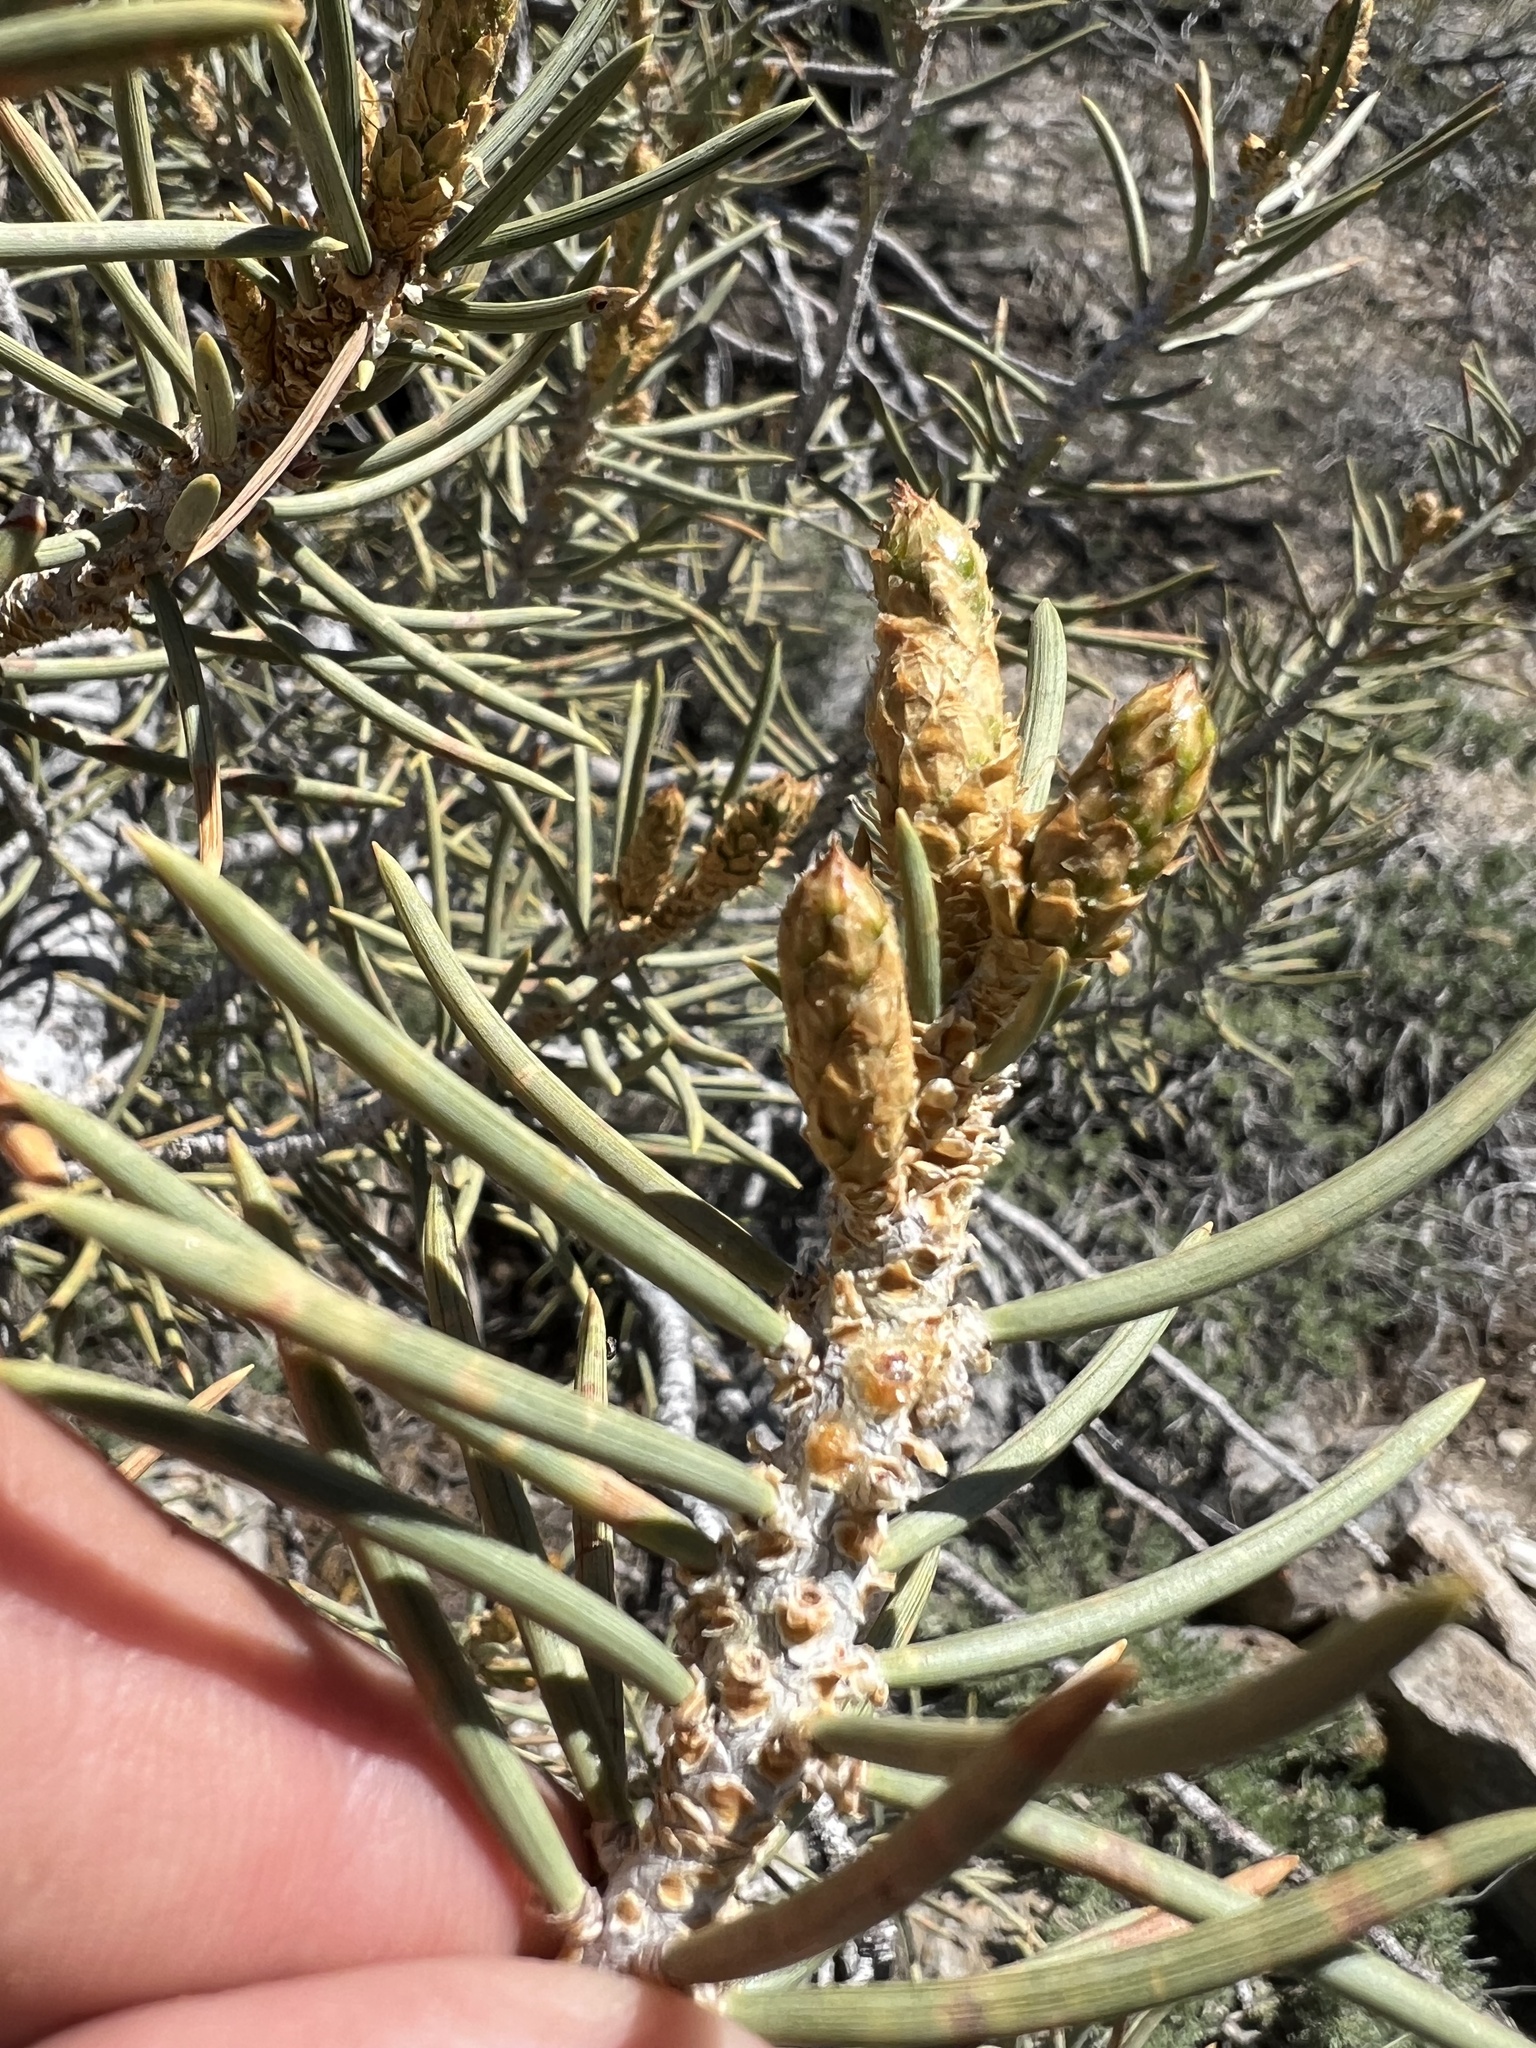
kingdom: Plantae
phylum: Tracheophyta
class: Pinopsida
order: Pinales
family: Pinaceae
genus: Pinus
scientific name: Pinus monophylla
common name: One-leaved nut pine
